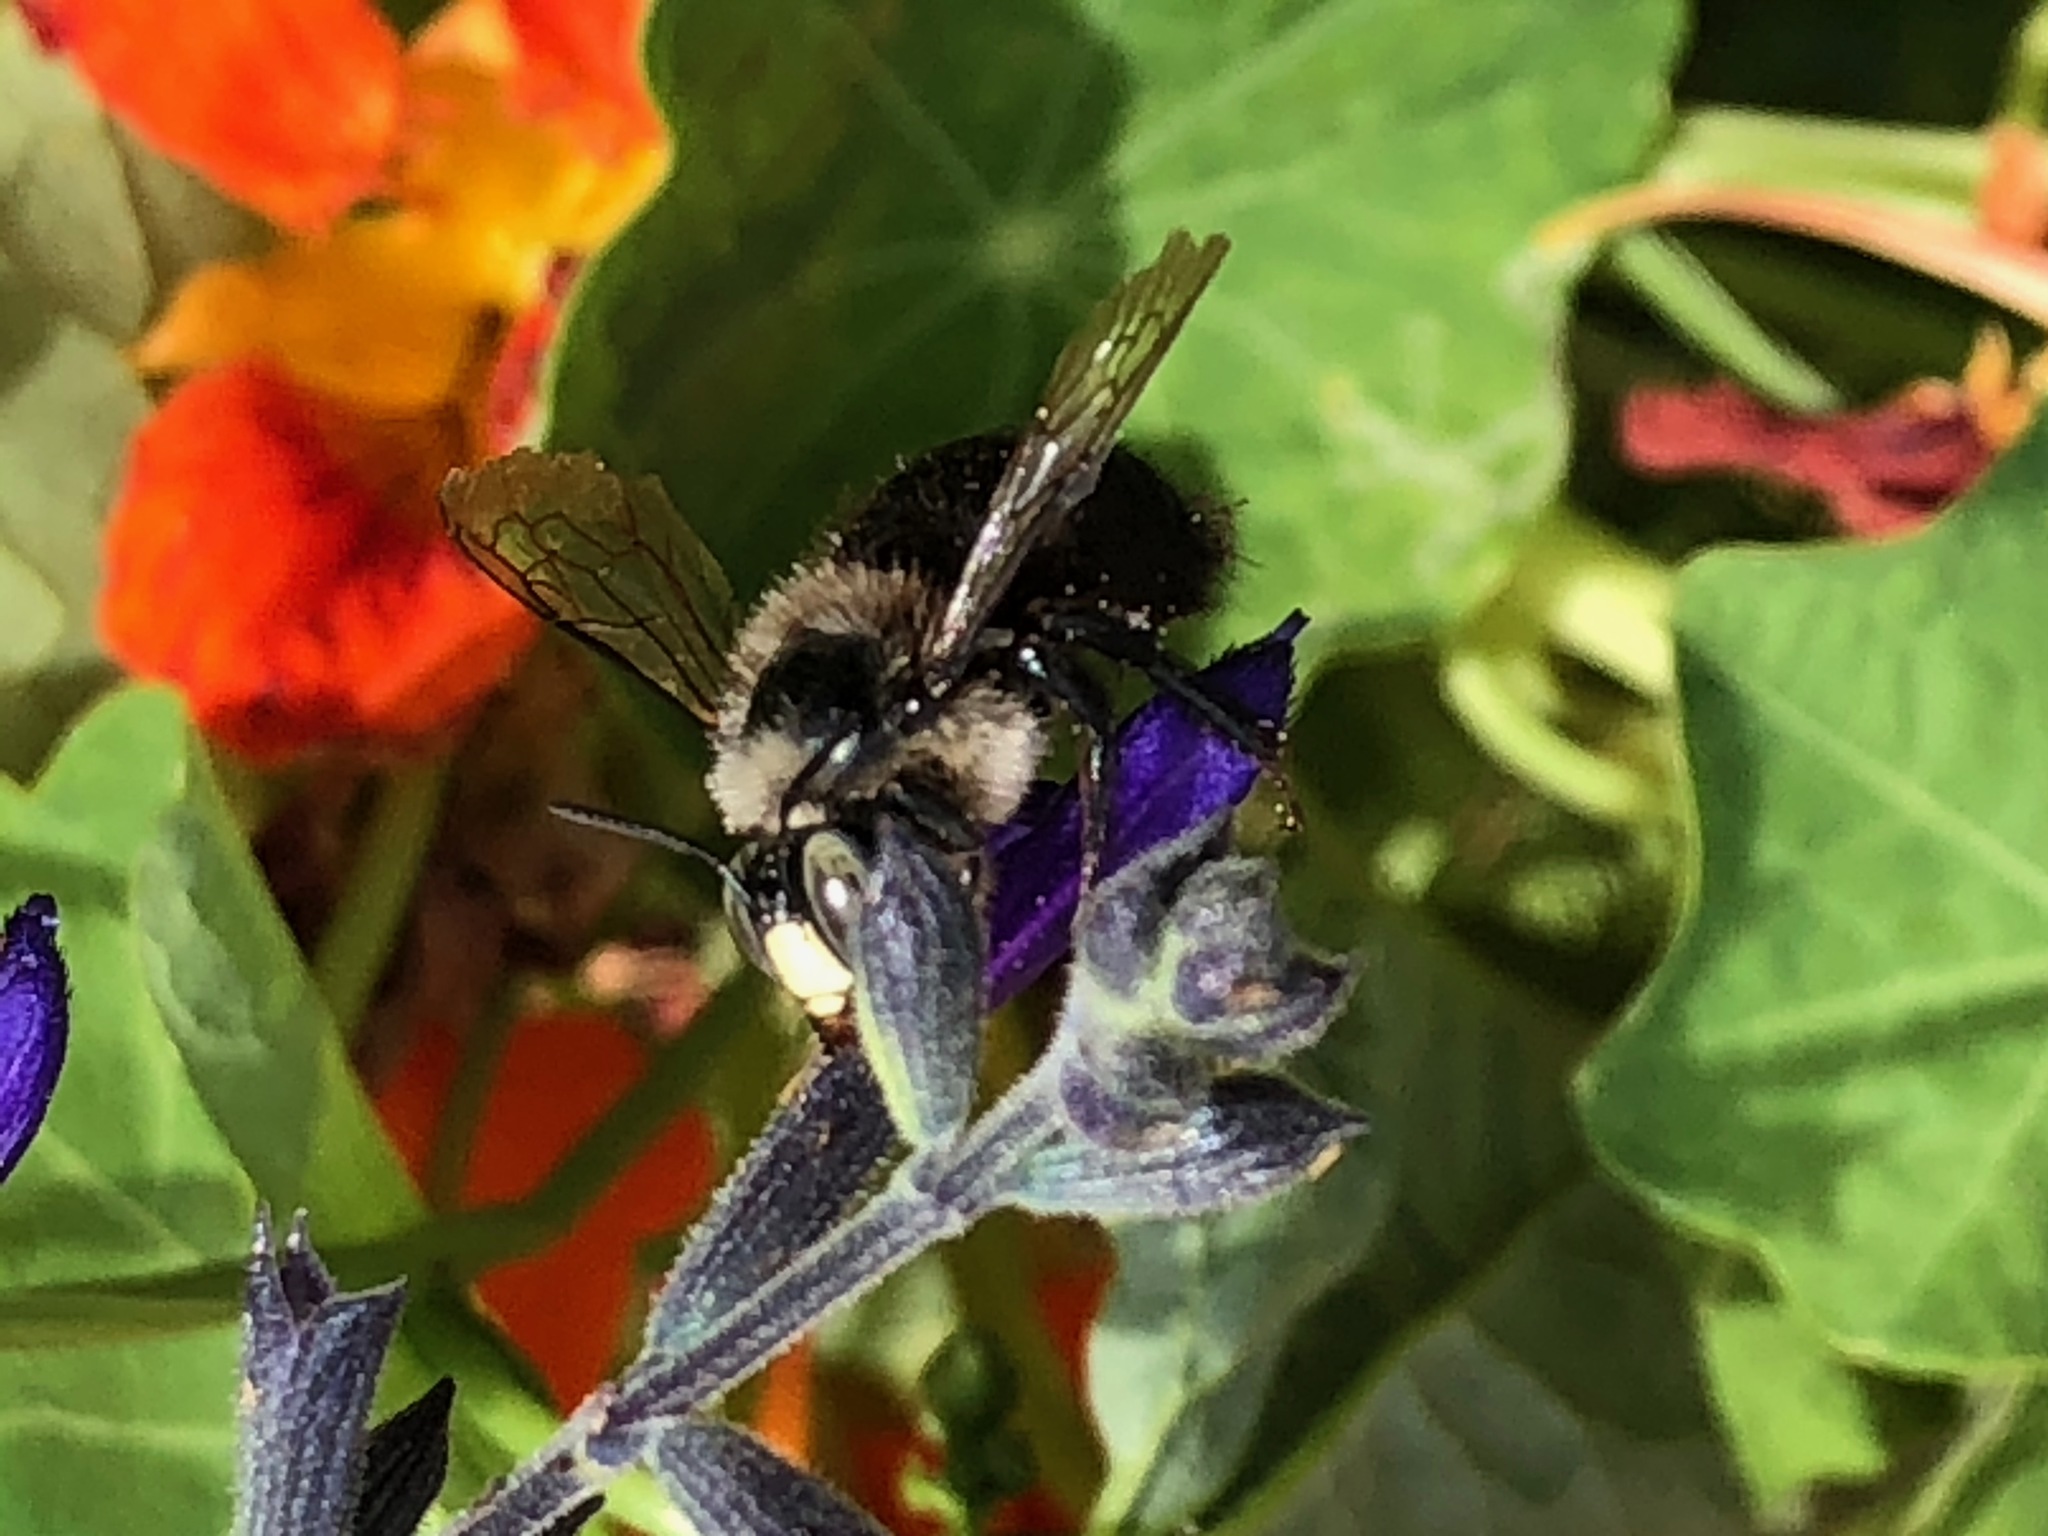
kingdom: Animalia
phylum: Arthropoda
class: Insecta
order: Hymenoptera
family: Apidae
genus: Xylocopa
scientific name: Xylocopa tabaniformis
